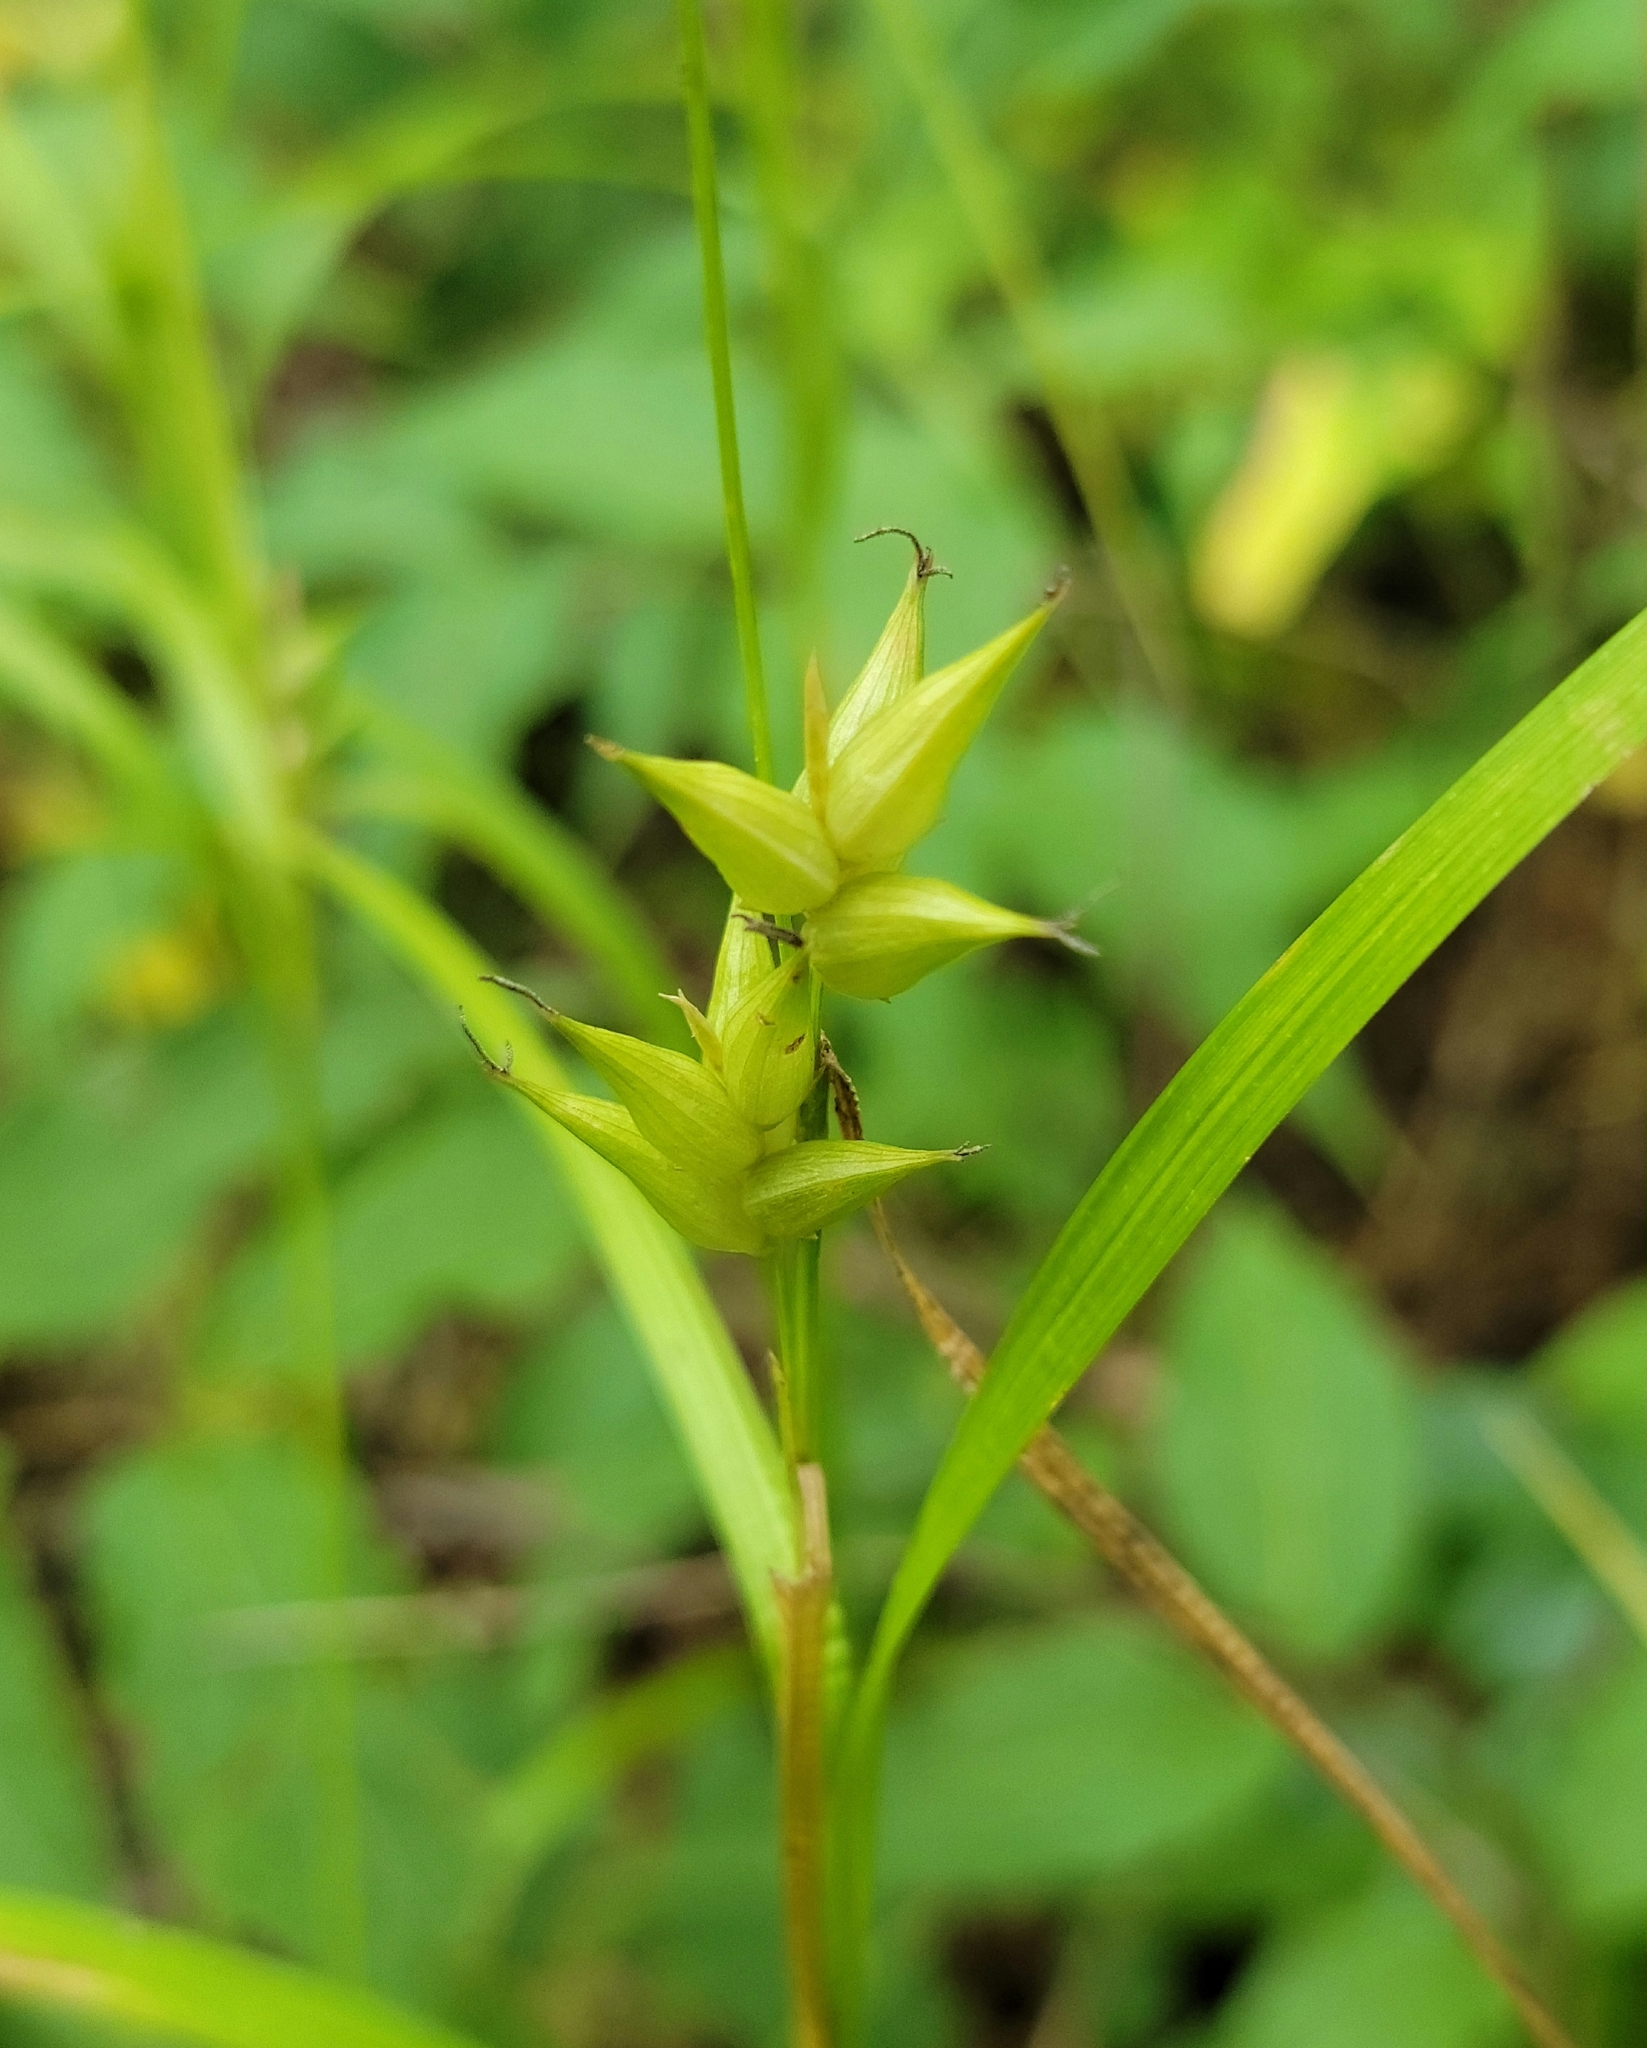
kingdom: Plantae
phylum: Tracheophyta
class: Liliopsida
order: Poales
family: Cyperaceae
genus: Carex
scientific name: Carex intumescens
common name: Greater bladder sedge
